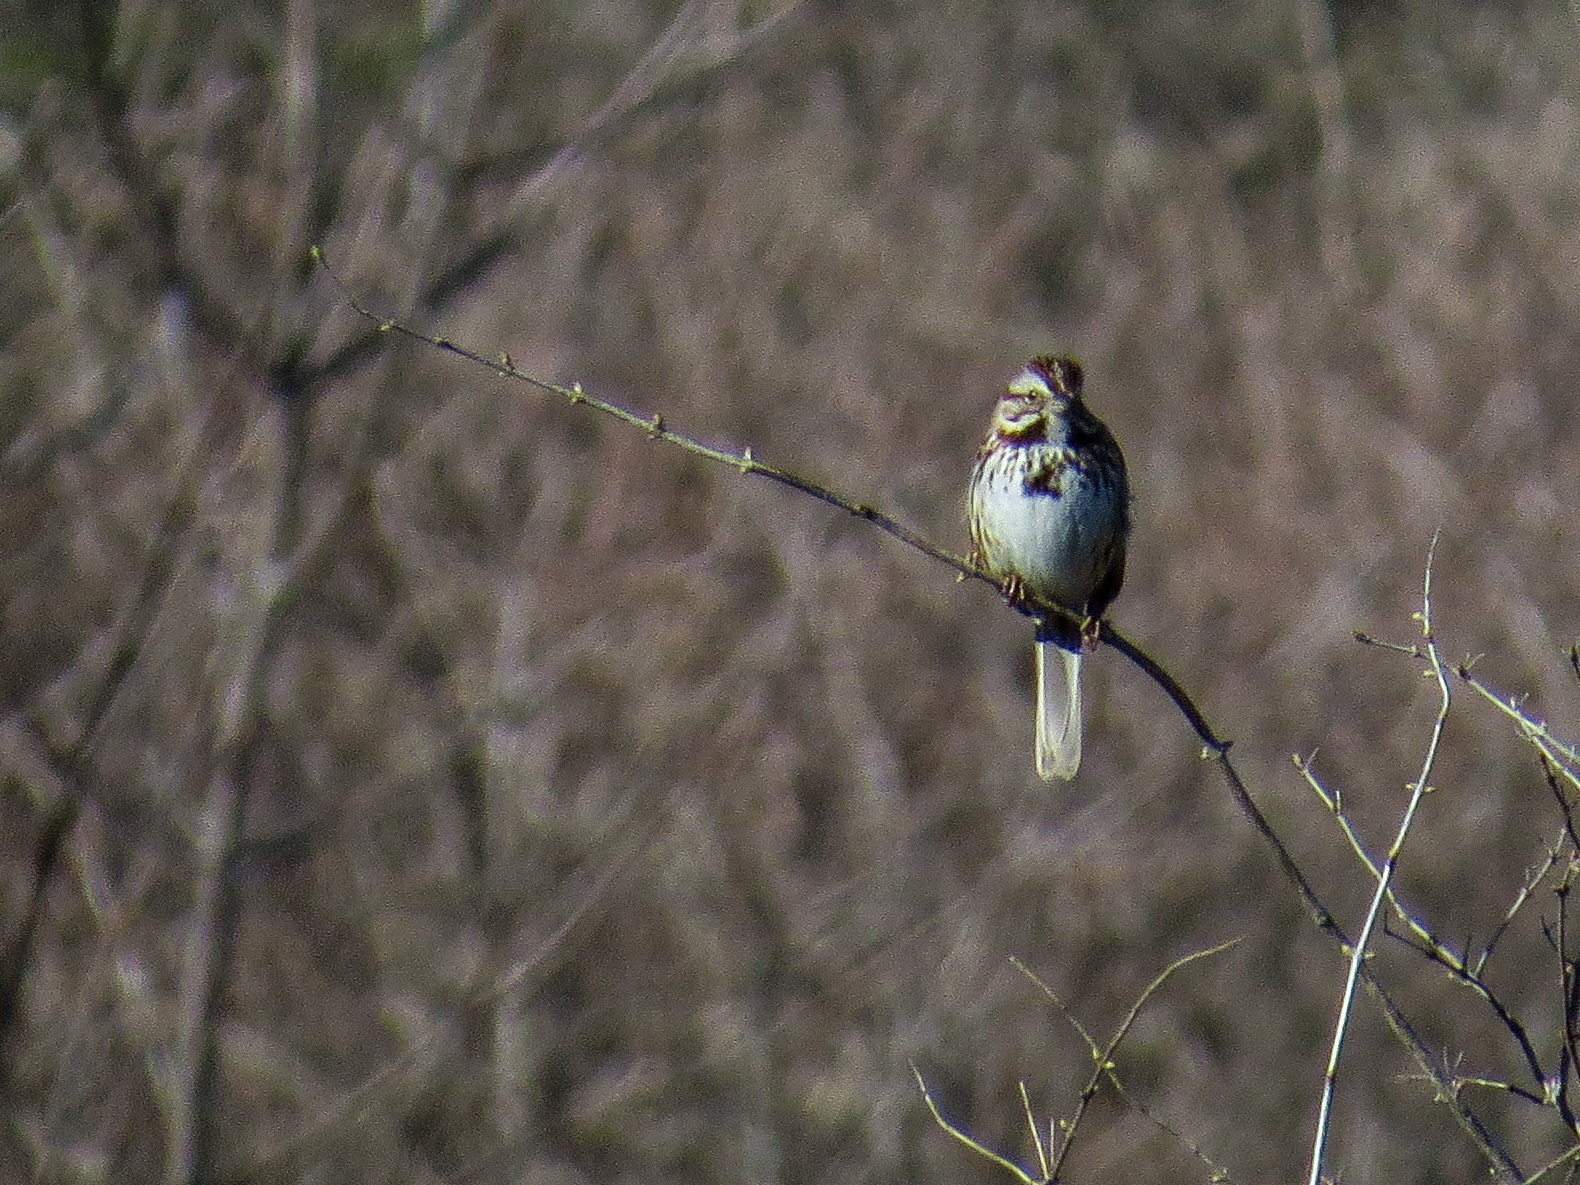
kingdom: Animalia
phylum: Chordata
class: Aves
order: Passeriformes
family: Passerellidae
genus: Melospiza
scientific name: Melospiza melodia
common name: Song sparrow
